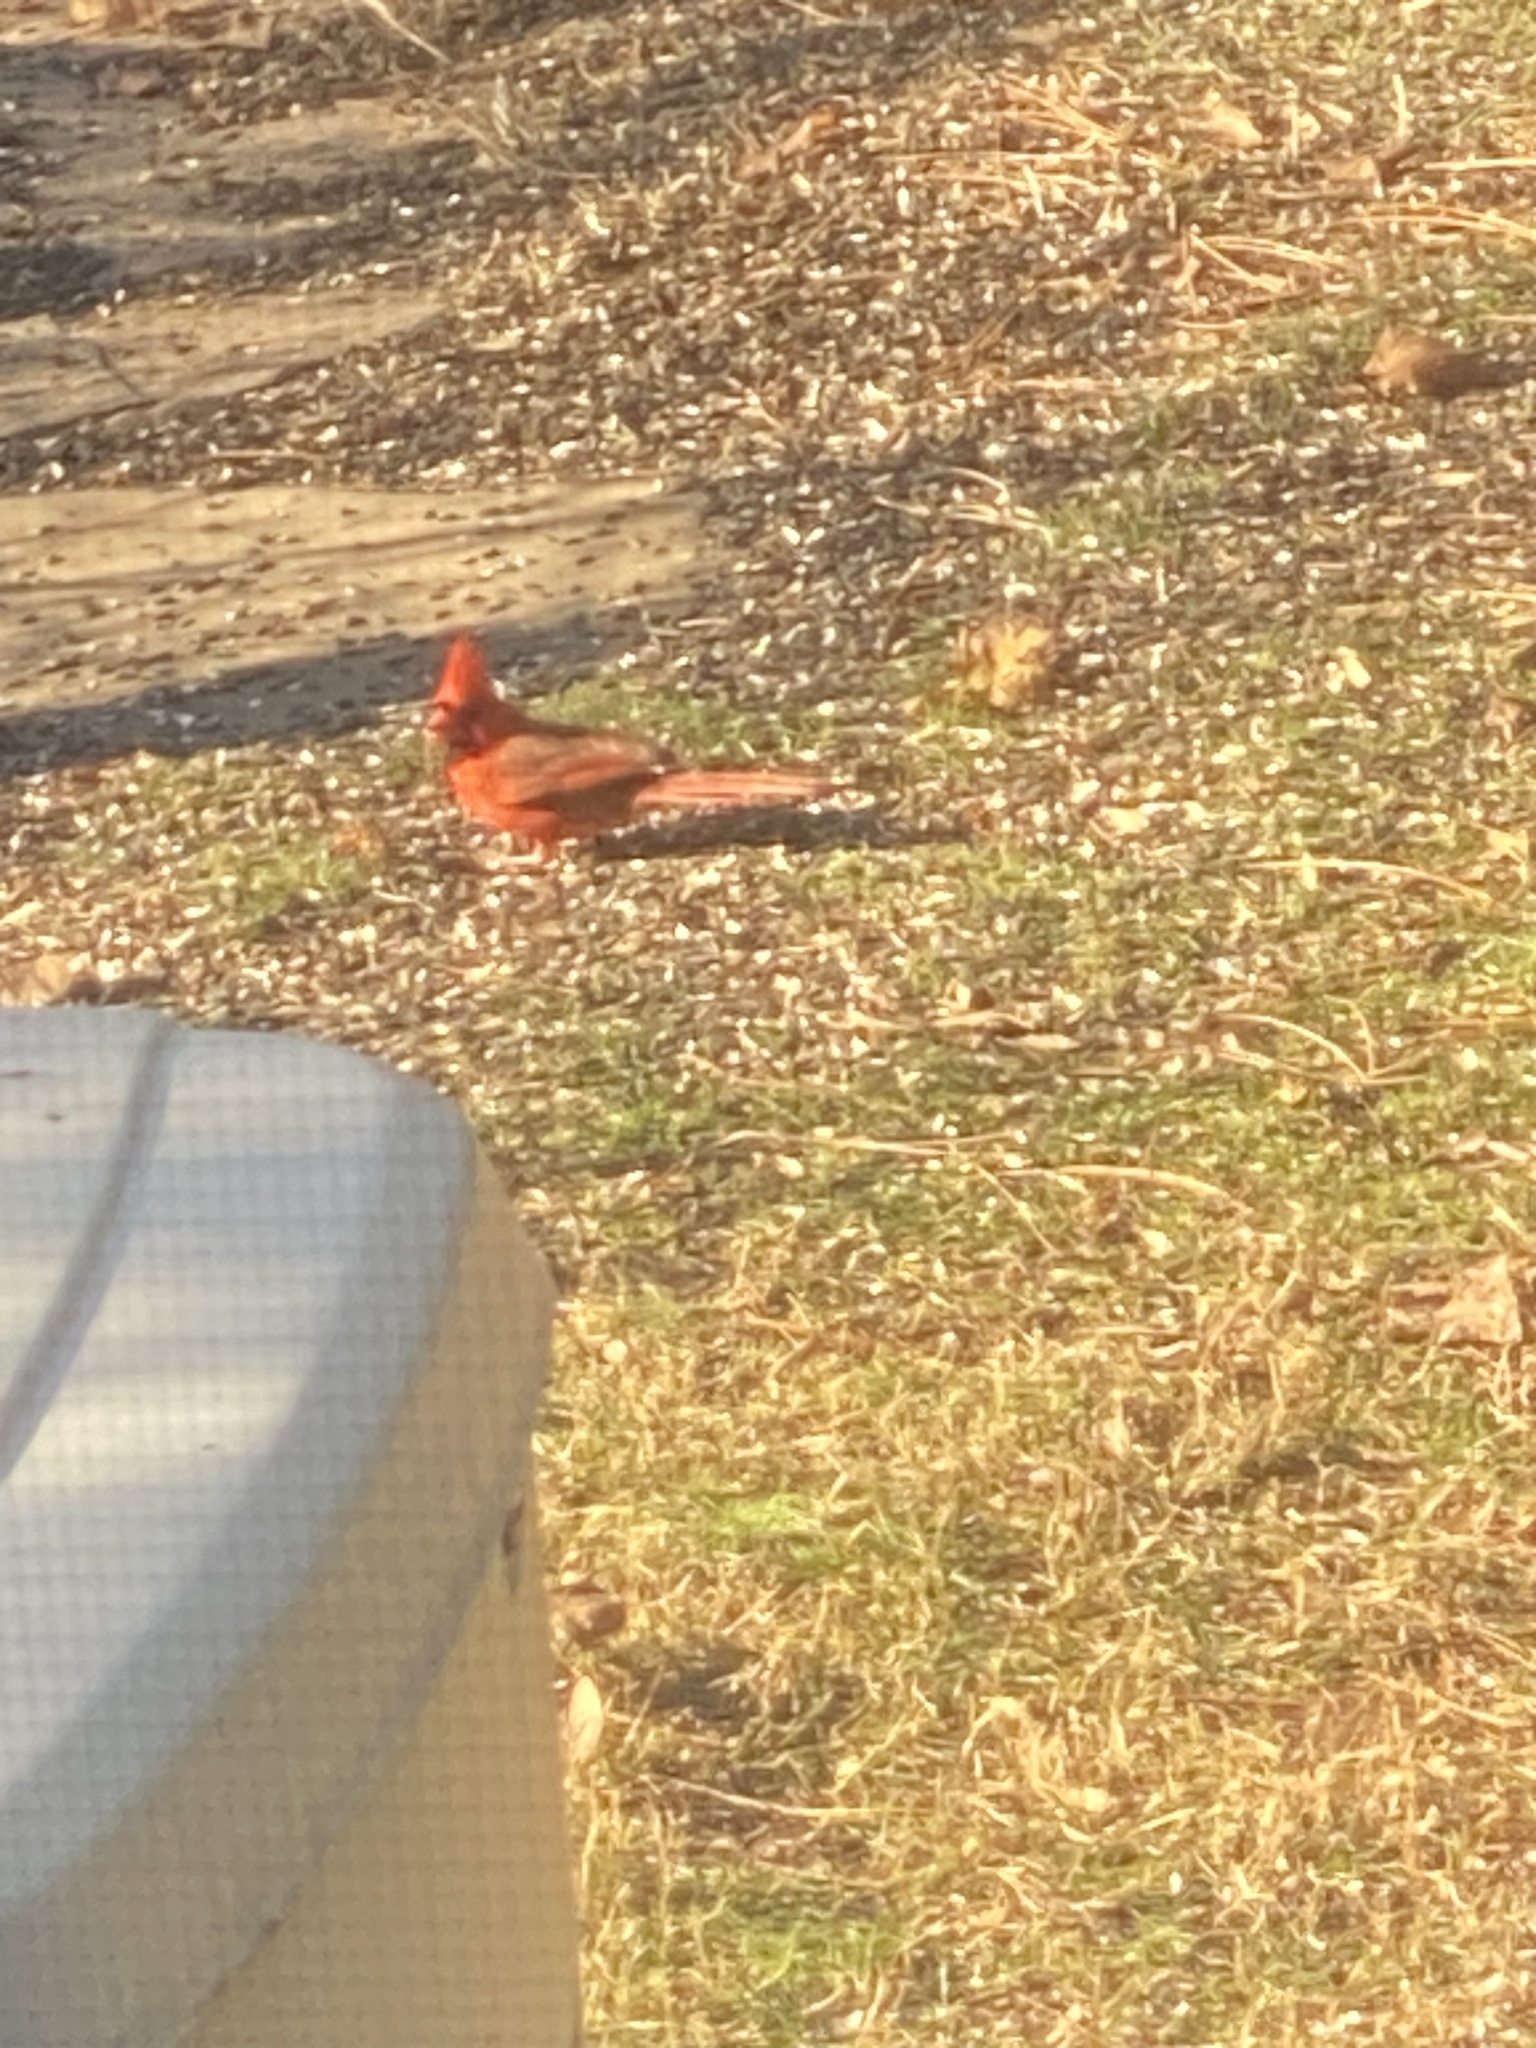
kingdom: Animalia
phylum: Chordata
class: Aves
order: Passeriformes
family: Cardinalidae
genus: Cardinalis
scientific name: Cardinalis cardinalis
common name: Northern cardinal
